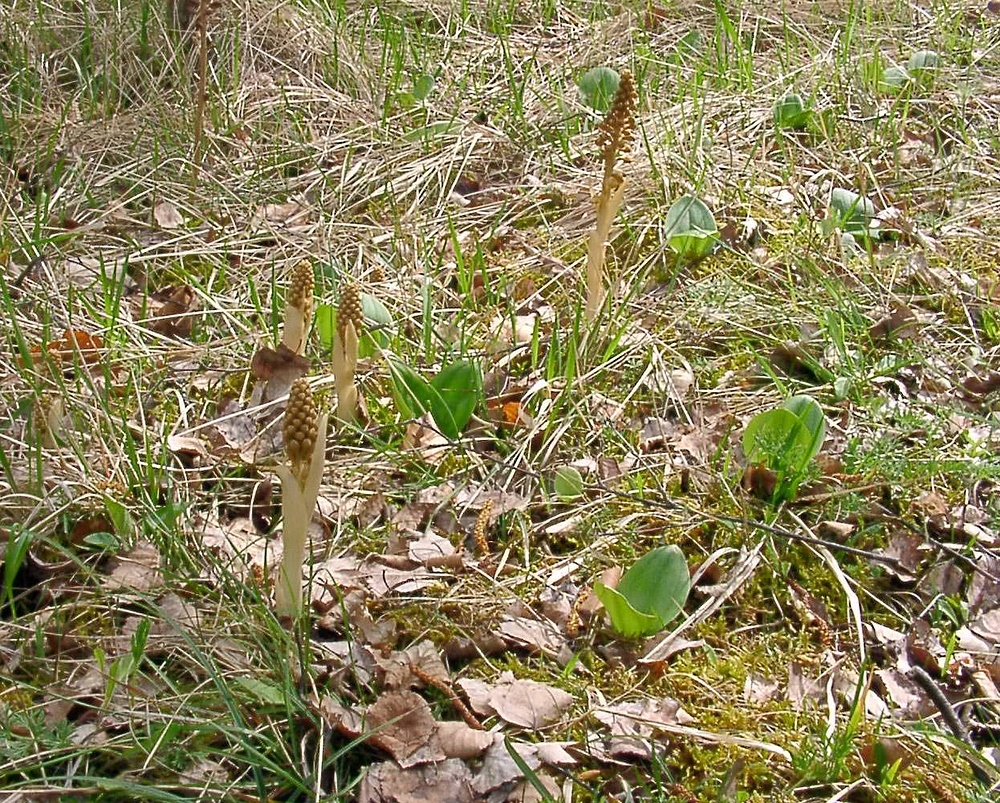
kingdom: Plantae
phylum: Tracheophyta
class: Liliopsida
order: Asparagales
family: Orchidaceae
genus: Neottia
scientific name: Neottia nidus-avis
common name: Bird's-nest orchid
